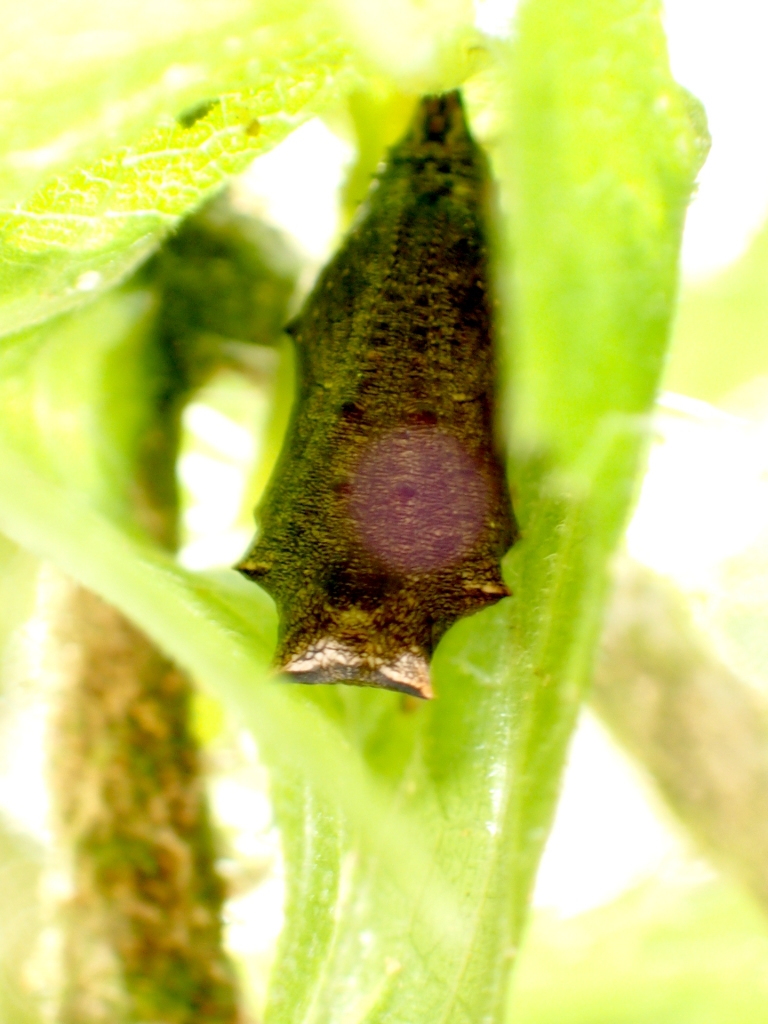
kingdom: Animalia
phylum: Arthropoda
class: Insecta
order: Lepidoptera
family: Nymphalidae
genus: Vanessa
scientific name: Vanessa gonerilla
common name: New zealand red admiral
